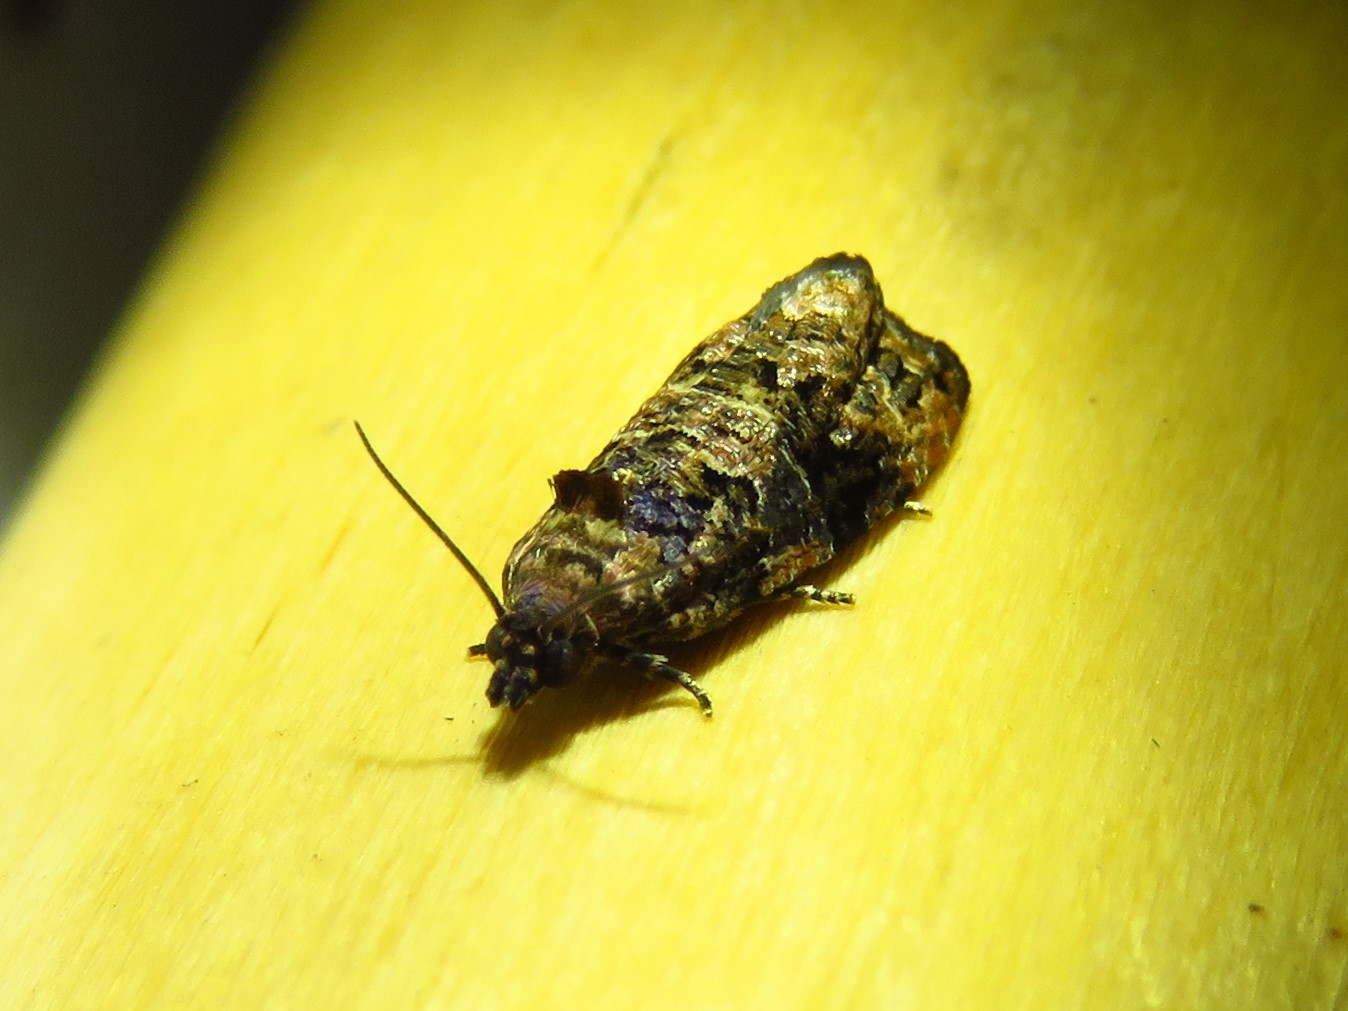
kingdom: Animalia
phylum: Arthropoda
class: Insecta
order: Lepidoptera
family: Tortricidae
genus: Endothenia
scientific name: Endothenia hebesana
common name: Verbena bud moth
